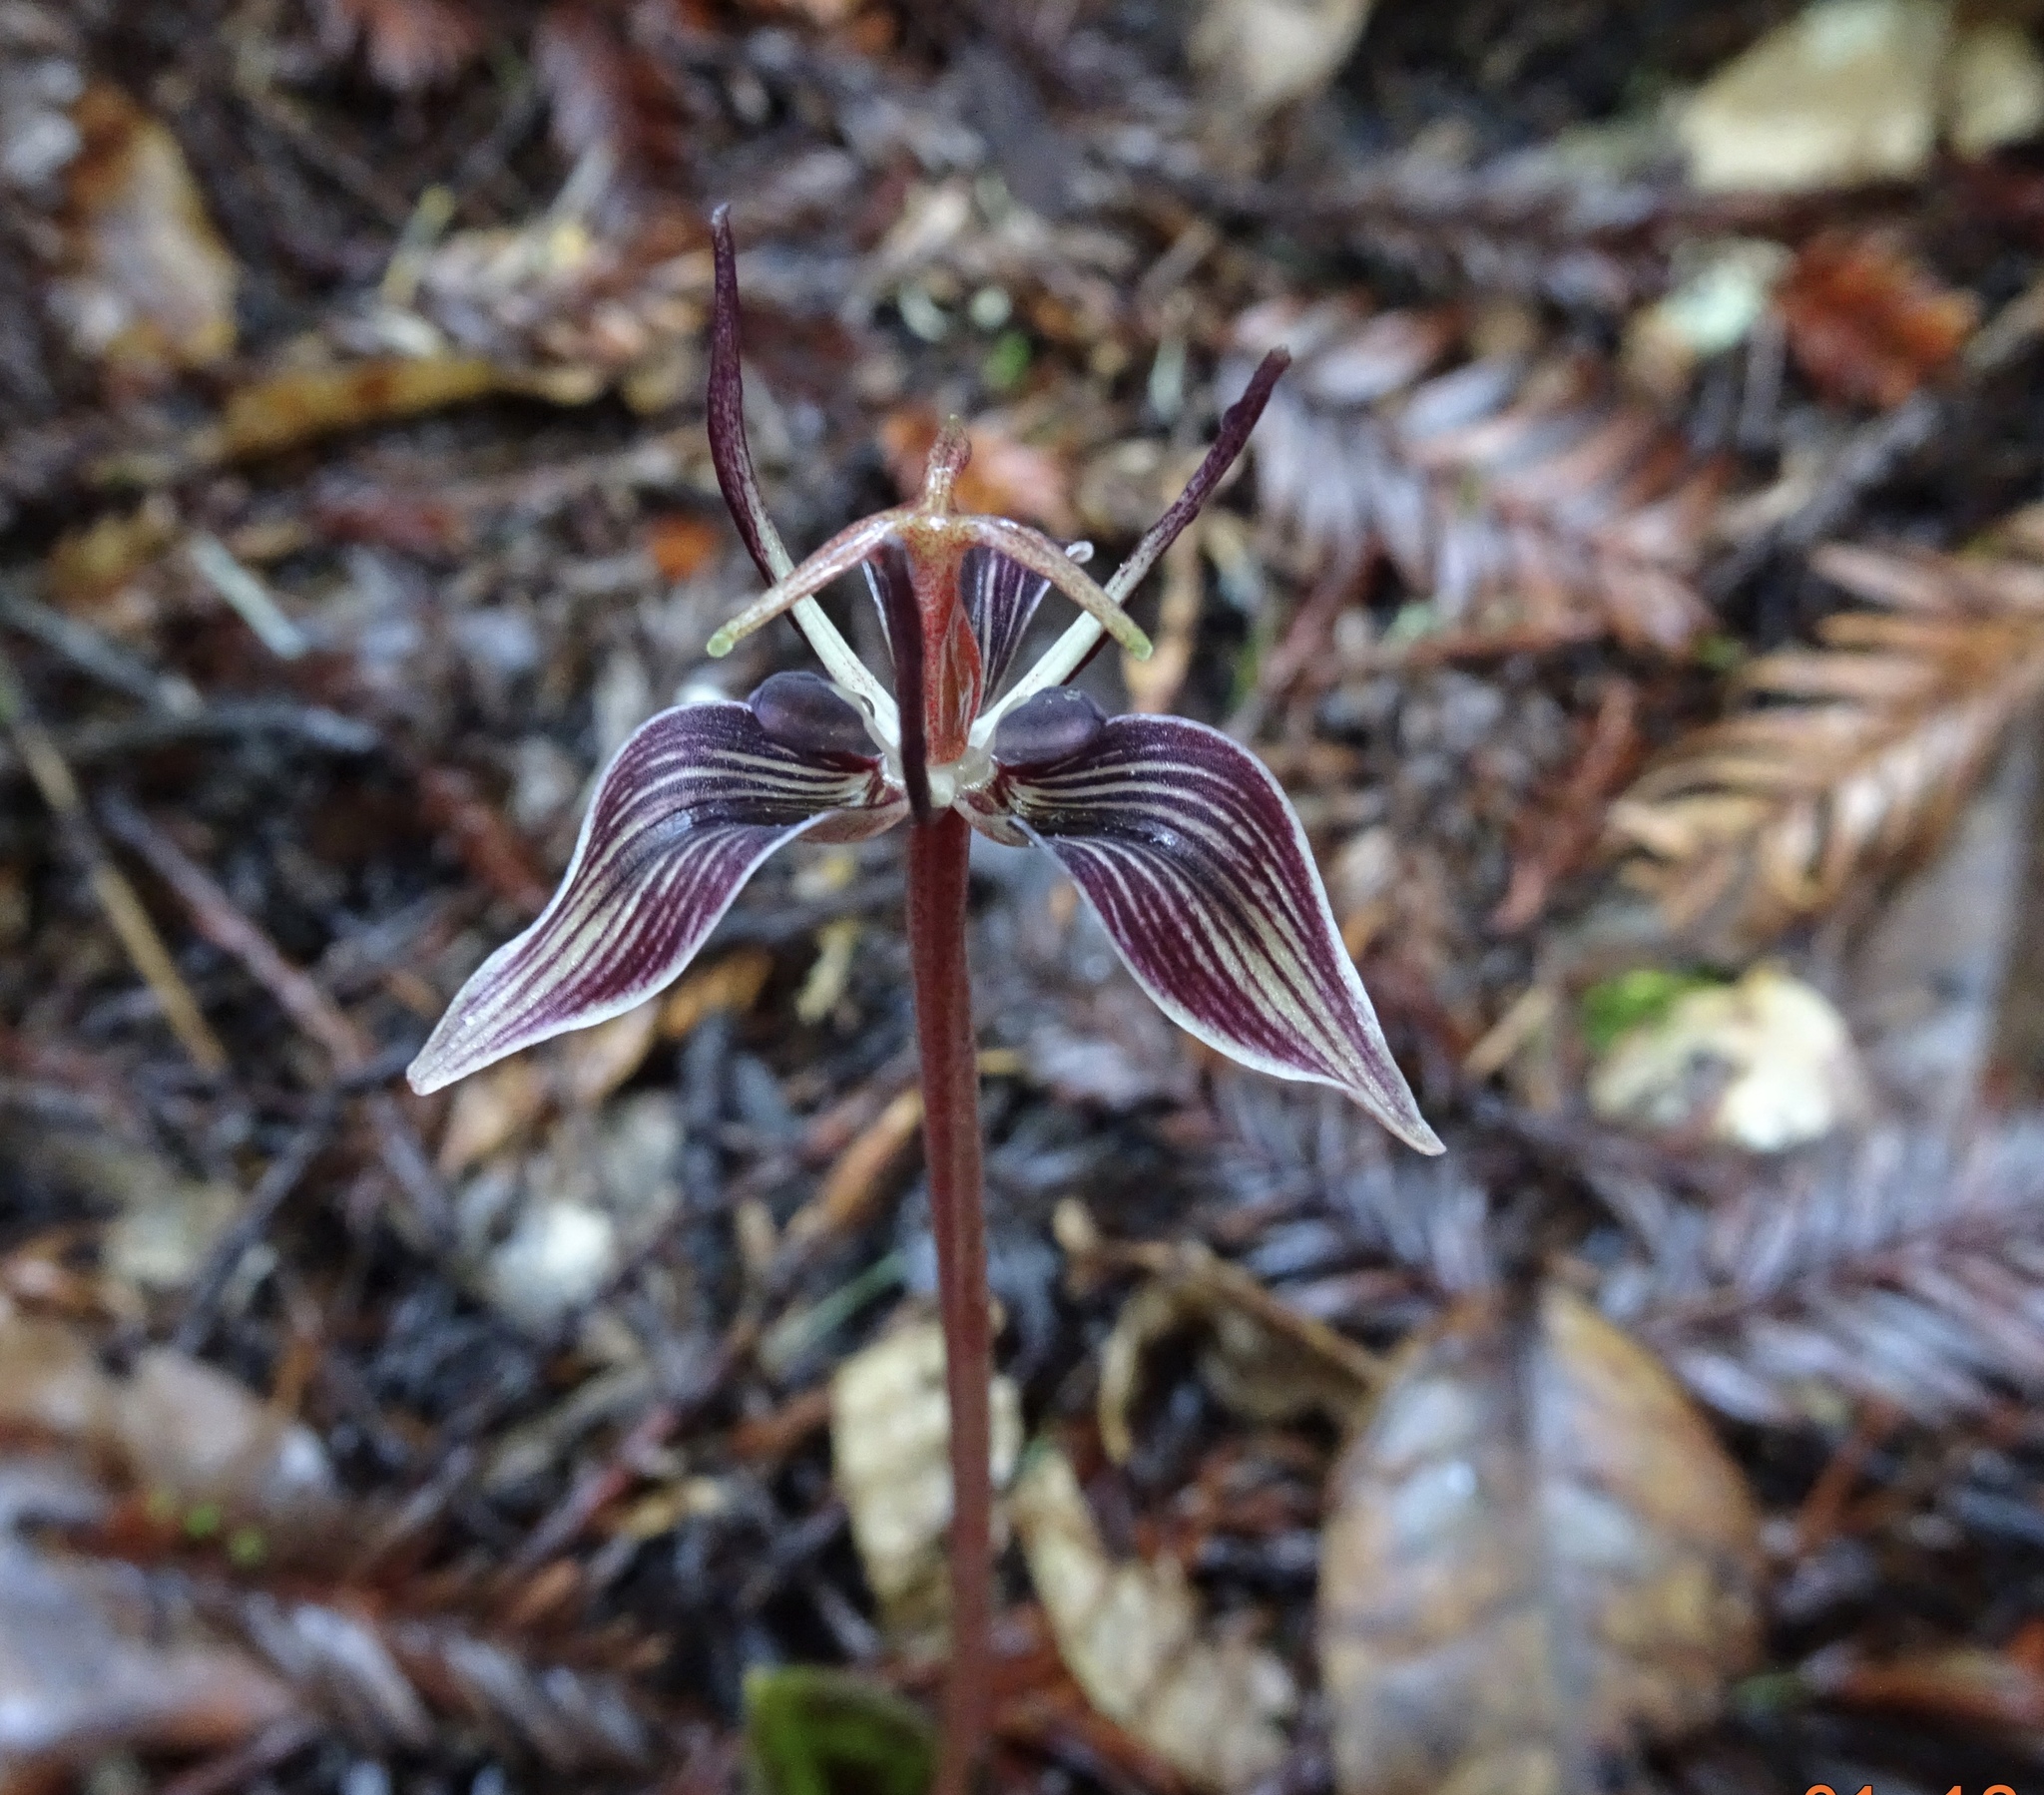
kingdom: Plantae
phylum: Tracheophyta
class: Liliopsida
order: Liliales
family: Liliaceae
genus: Scoliopus
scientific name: Scoliopus bigelovii
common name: Foetid adder's-tongue
